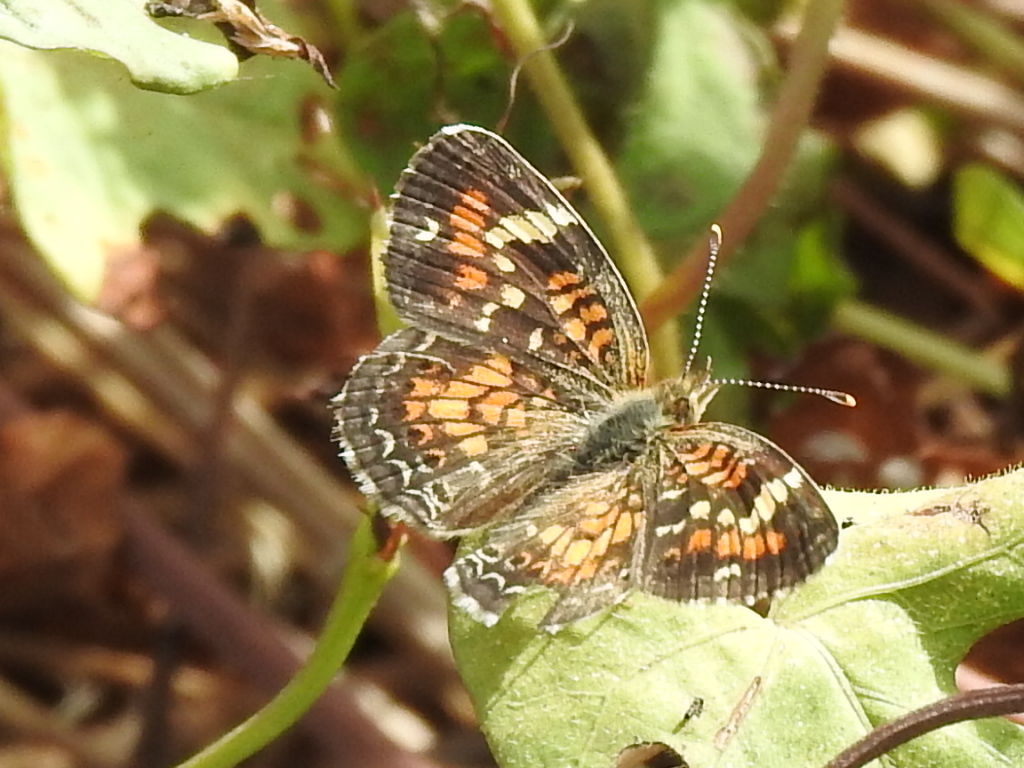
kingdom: Animalia
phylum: Arthropoda
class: Insecta
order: Lepidoptera
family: Nymphalidae
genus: Phyciodes
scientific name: Phyciodes phaon
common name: Phaon crescent
